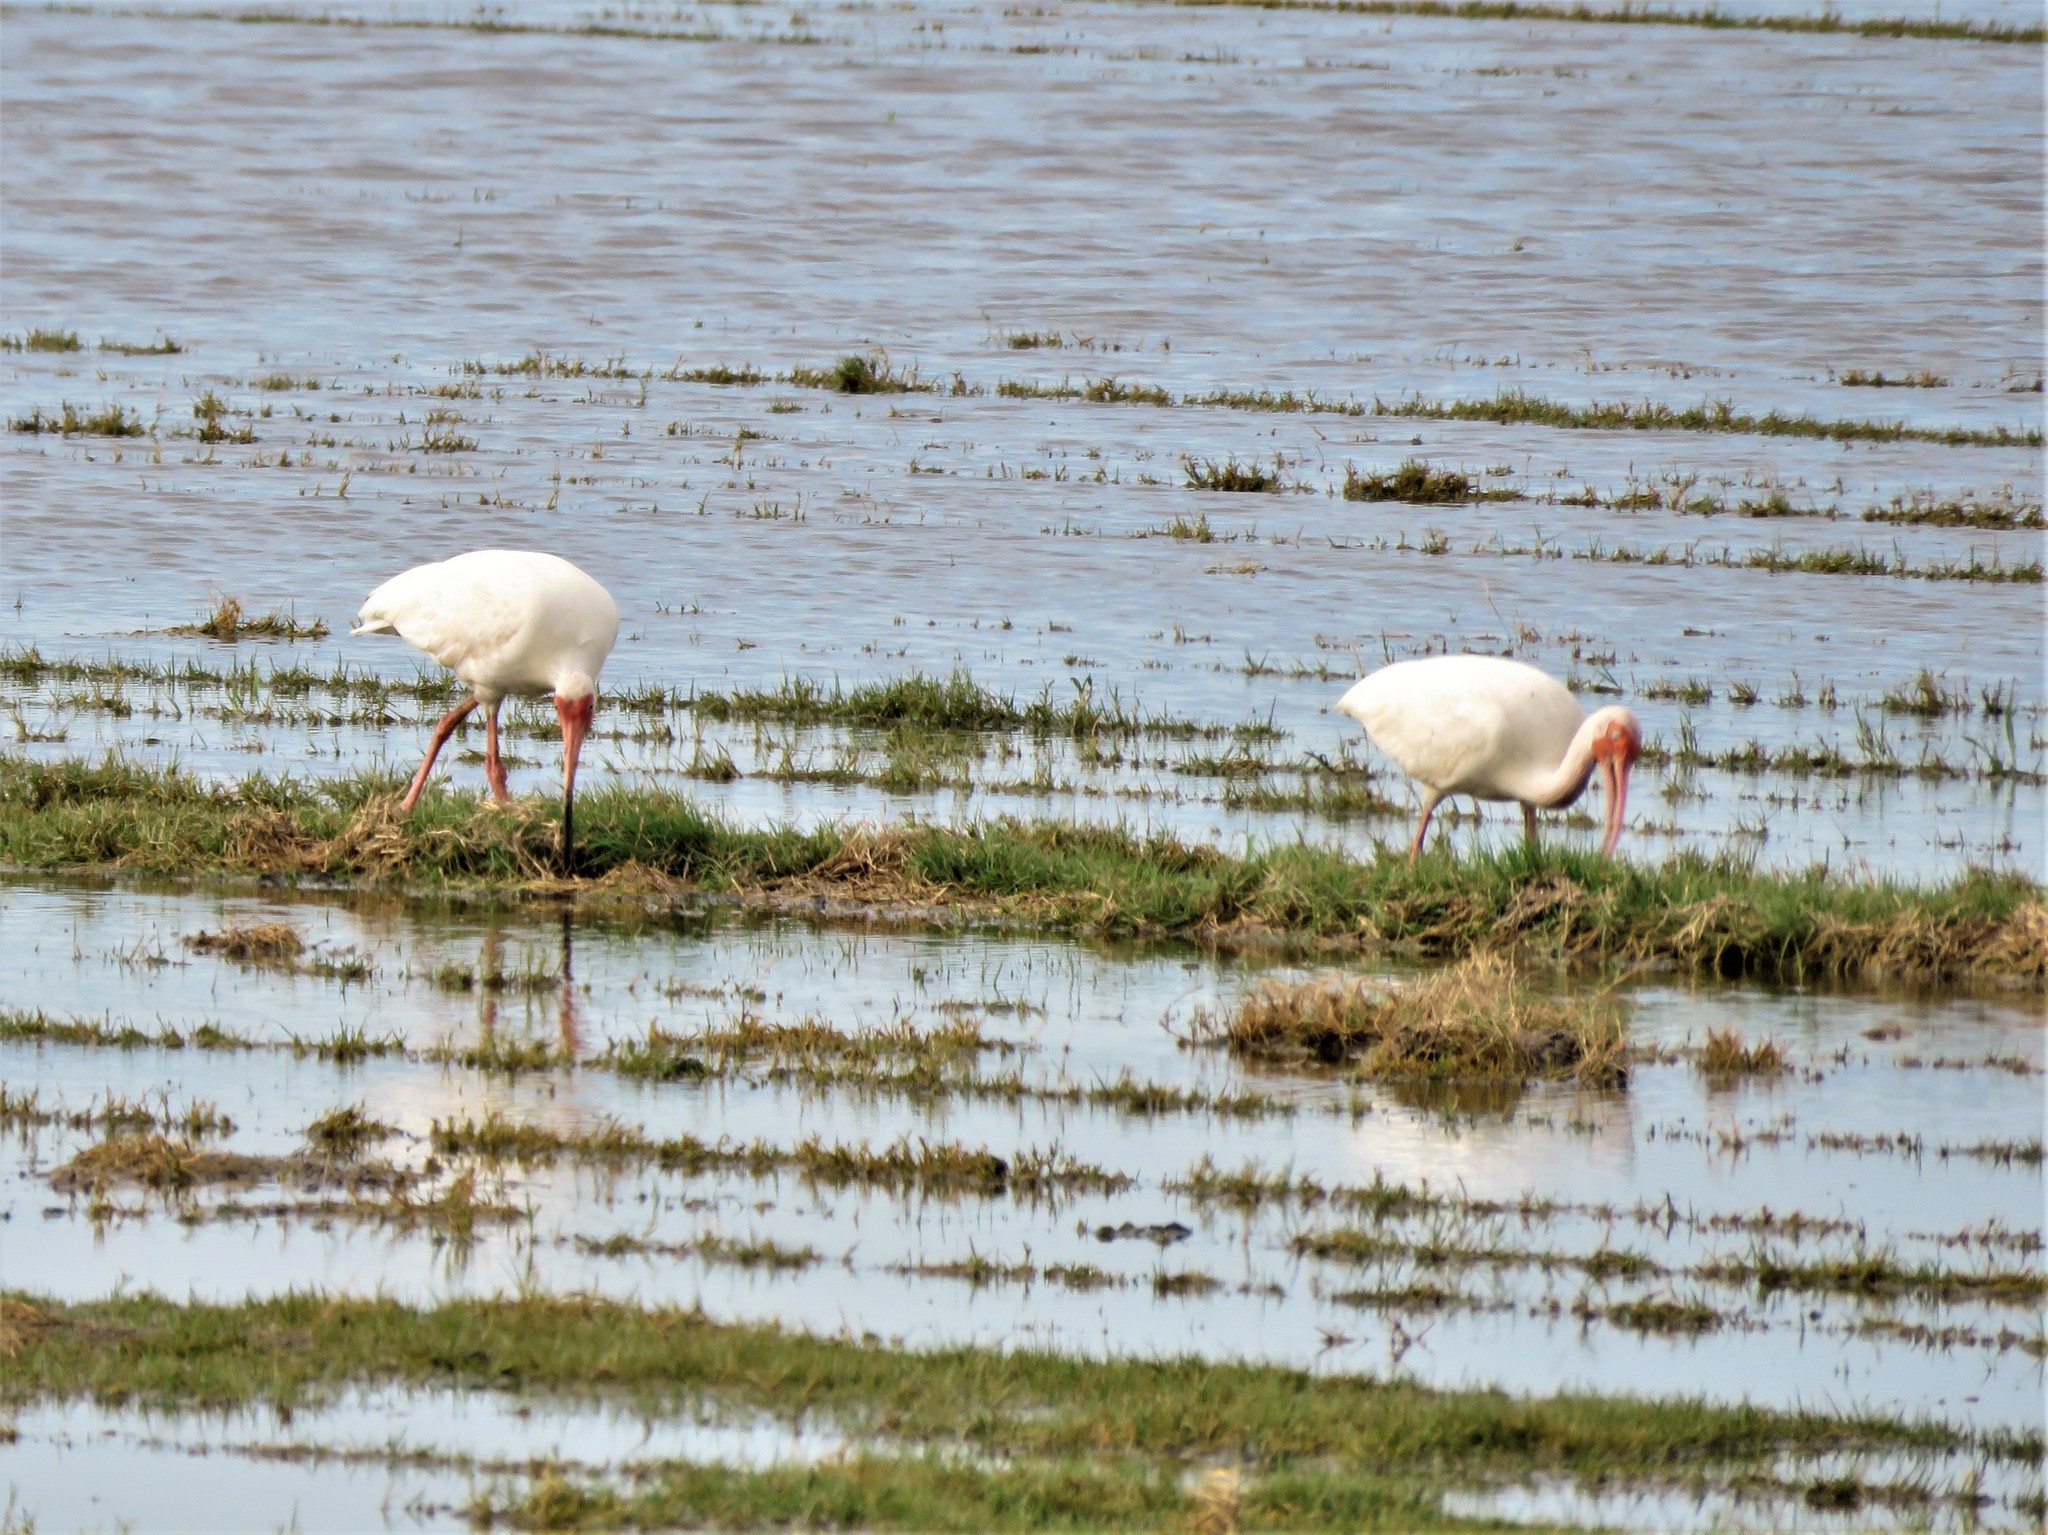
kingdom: Animalia
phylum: Chordata
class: Aves
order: Pelecaniformes
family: Threskiornithidae
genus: Eudocimus
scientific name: Eudocimus albus
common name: White ibis
